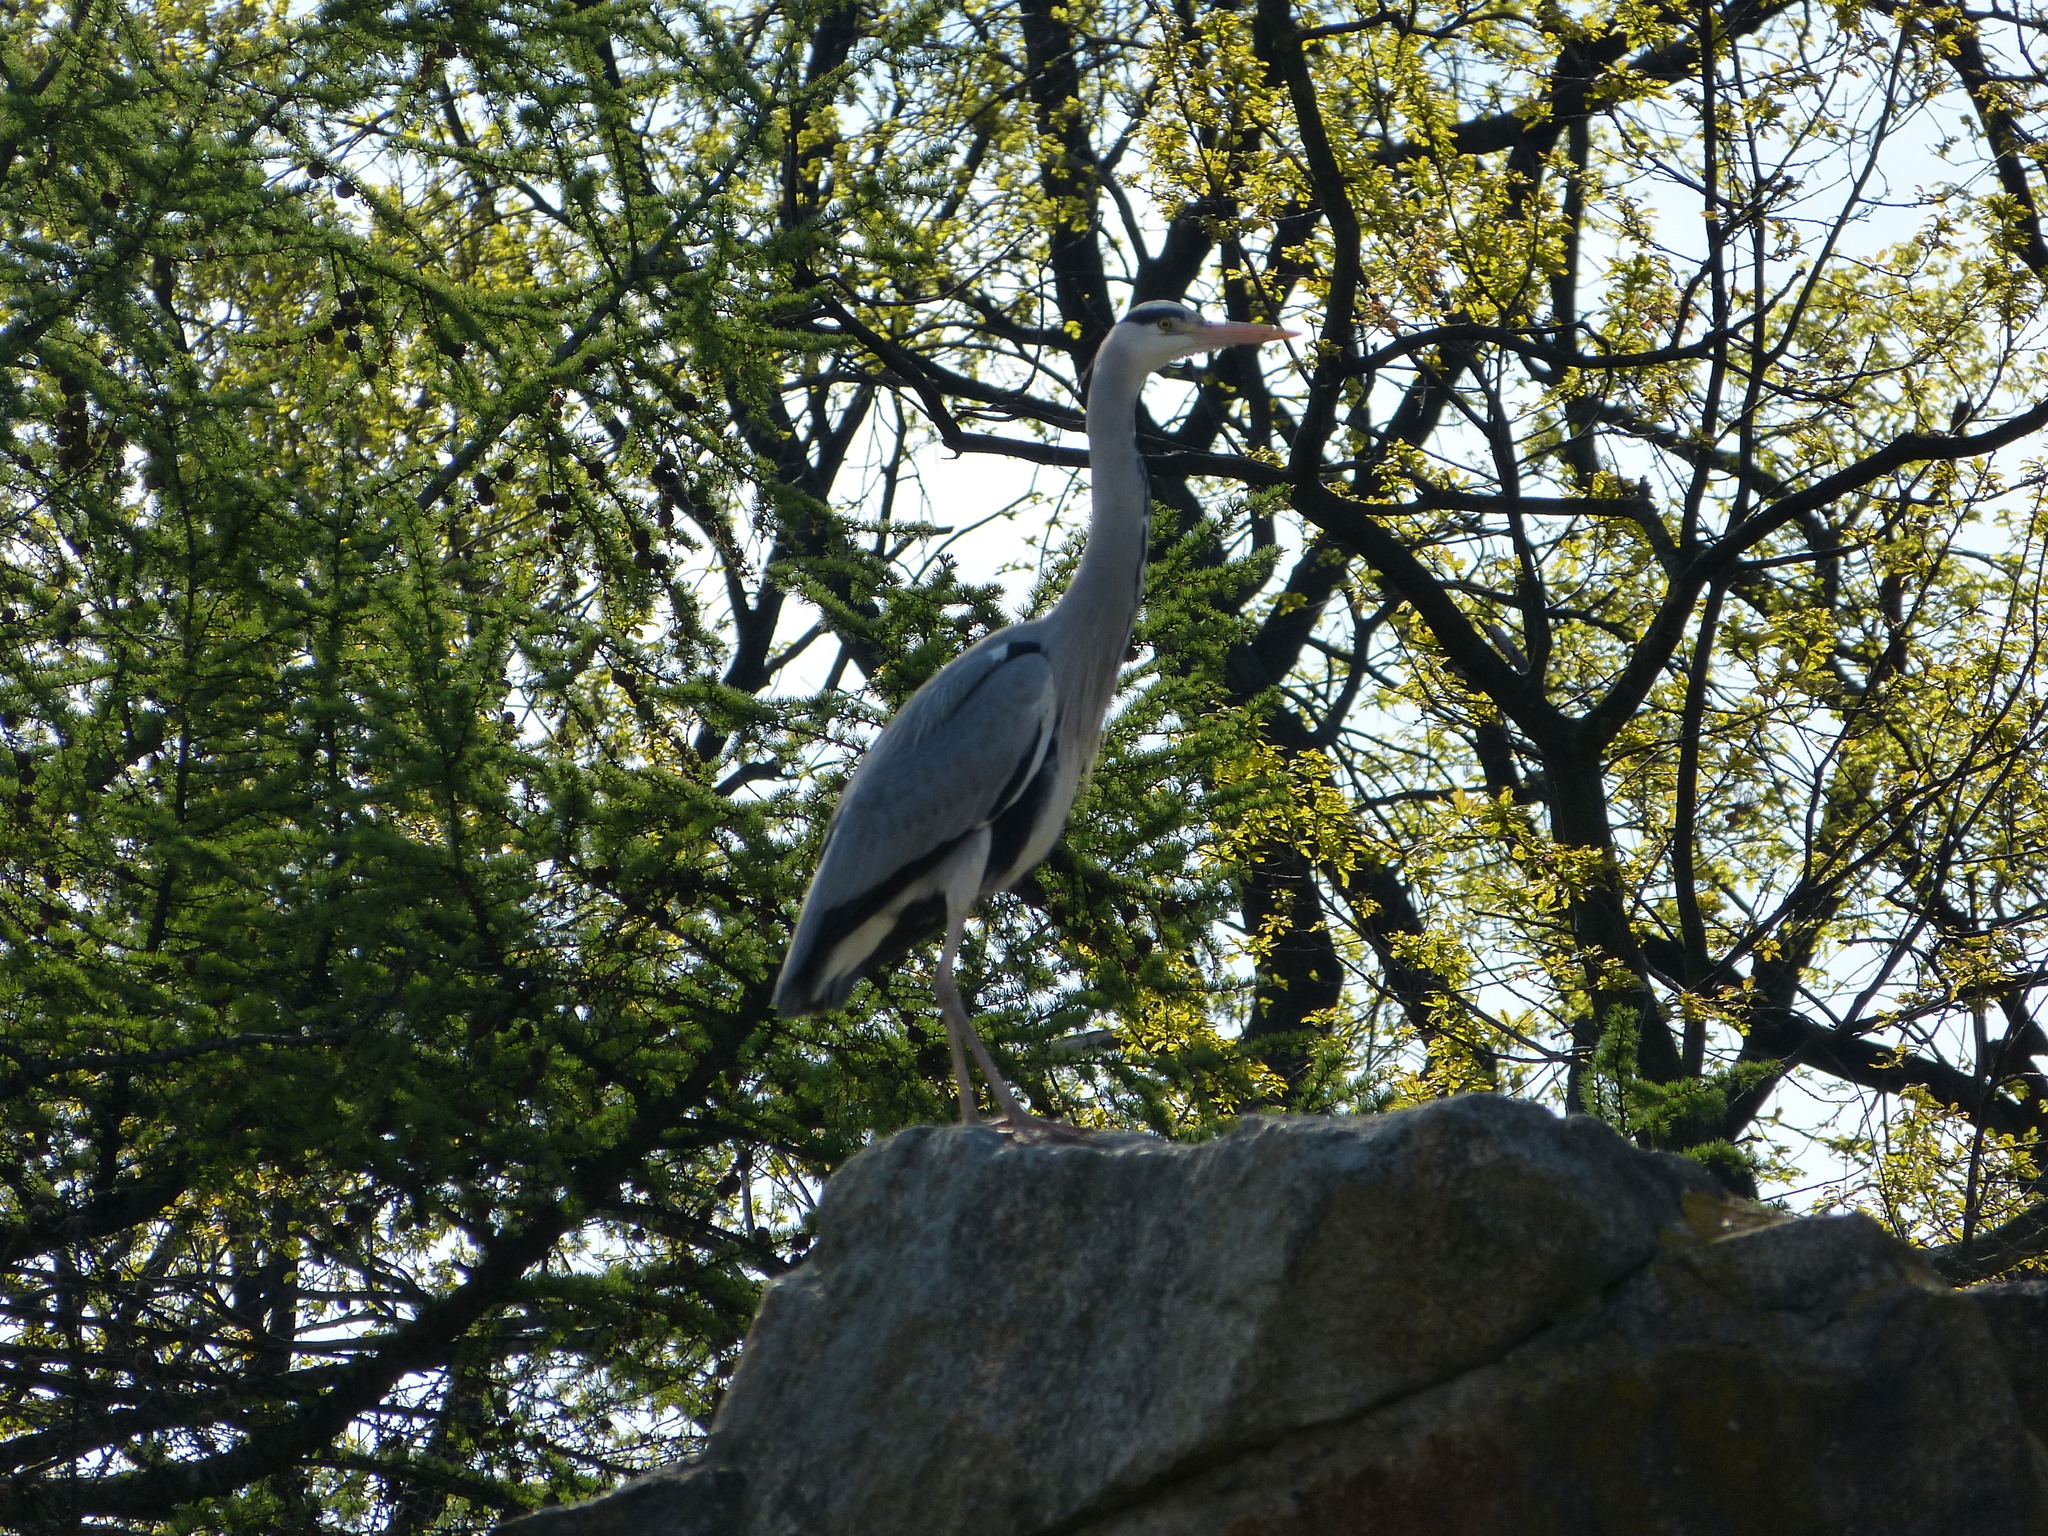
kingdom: Animalia
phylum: Chordata
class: Aves
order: Pelecaniformes
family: Ardeidae
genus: Ardea
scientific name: Ardea cinerea
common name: Grey heron
